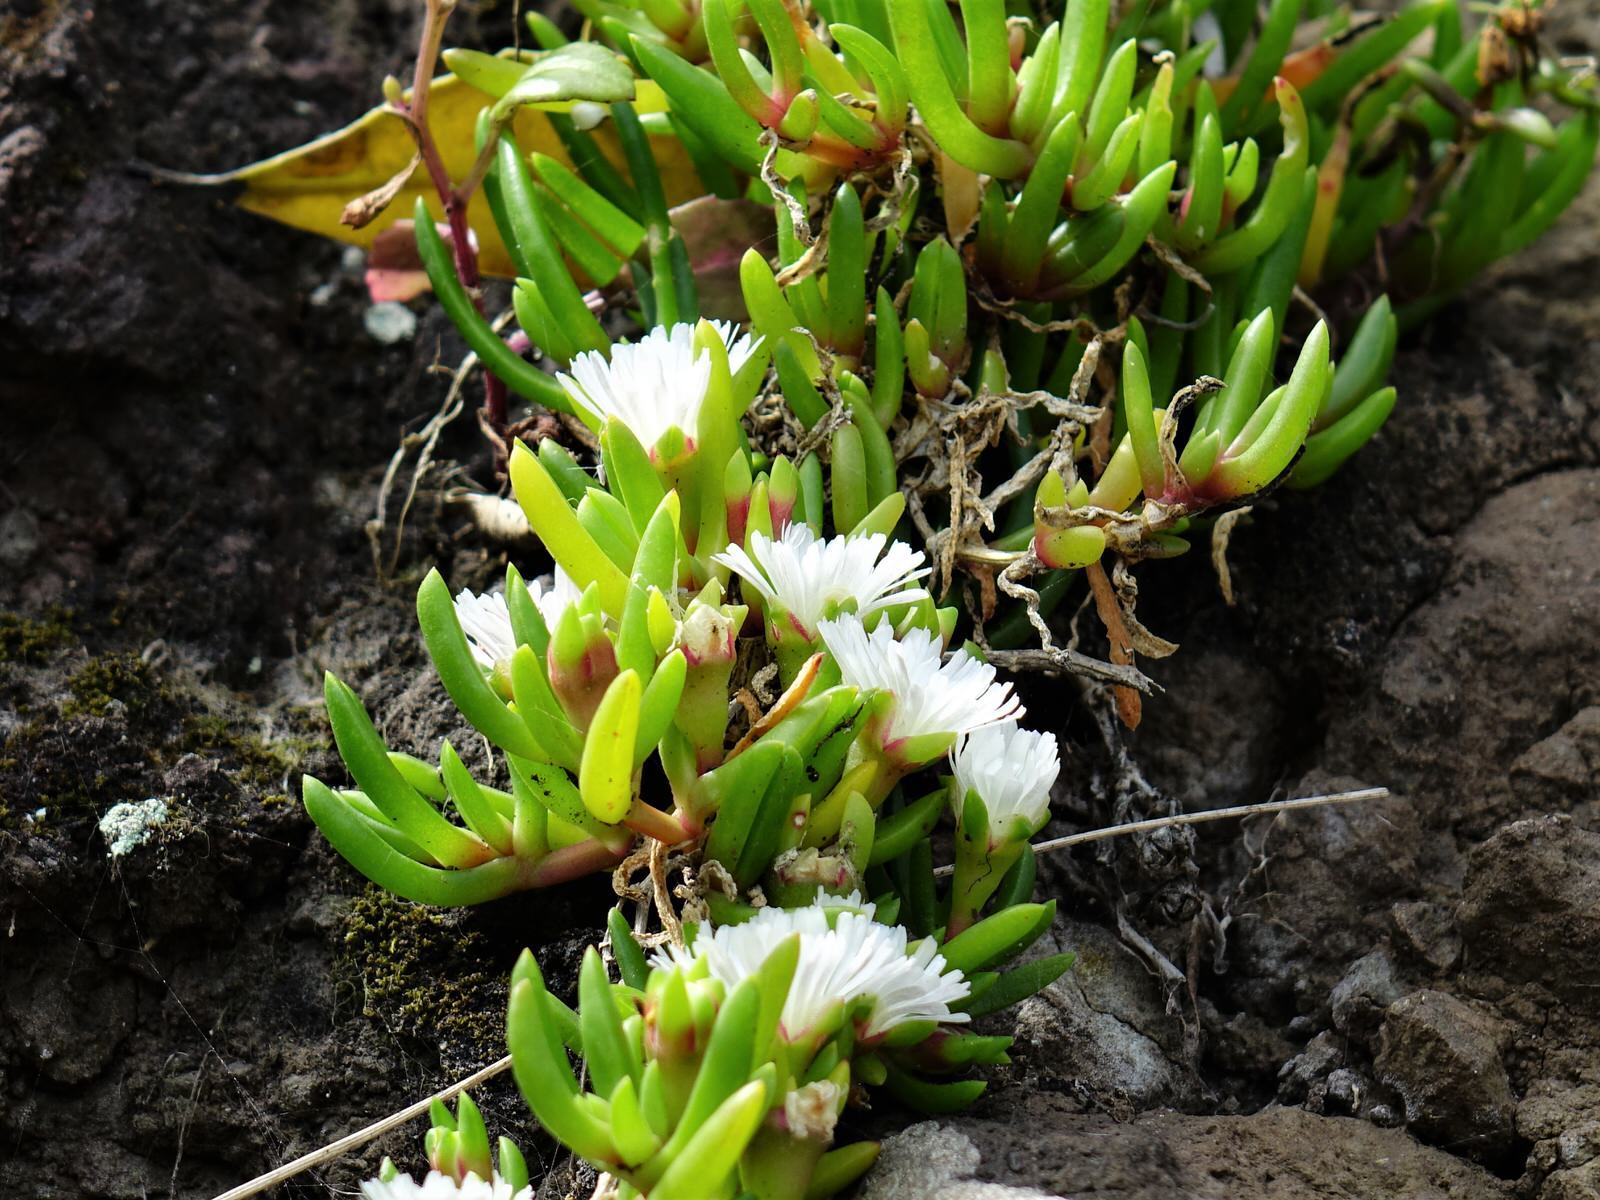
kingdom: Plantae
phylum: Tracheophyta
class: Magnoliopsida
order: Caryophyllales
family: Aizoaceae
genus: Disphyma
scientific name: Disphyma australe
